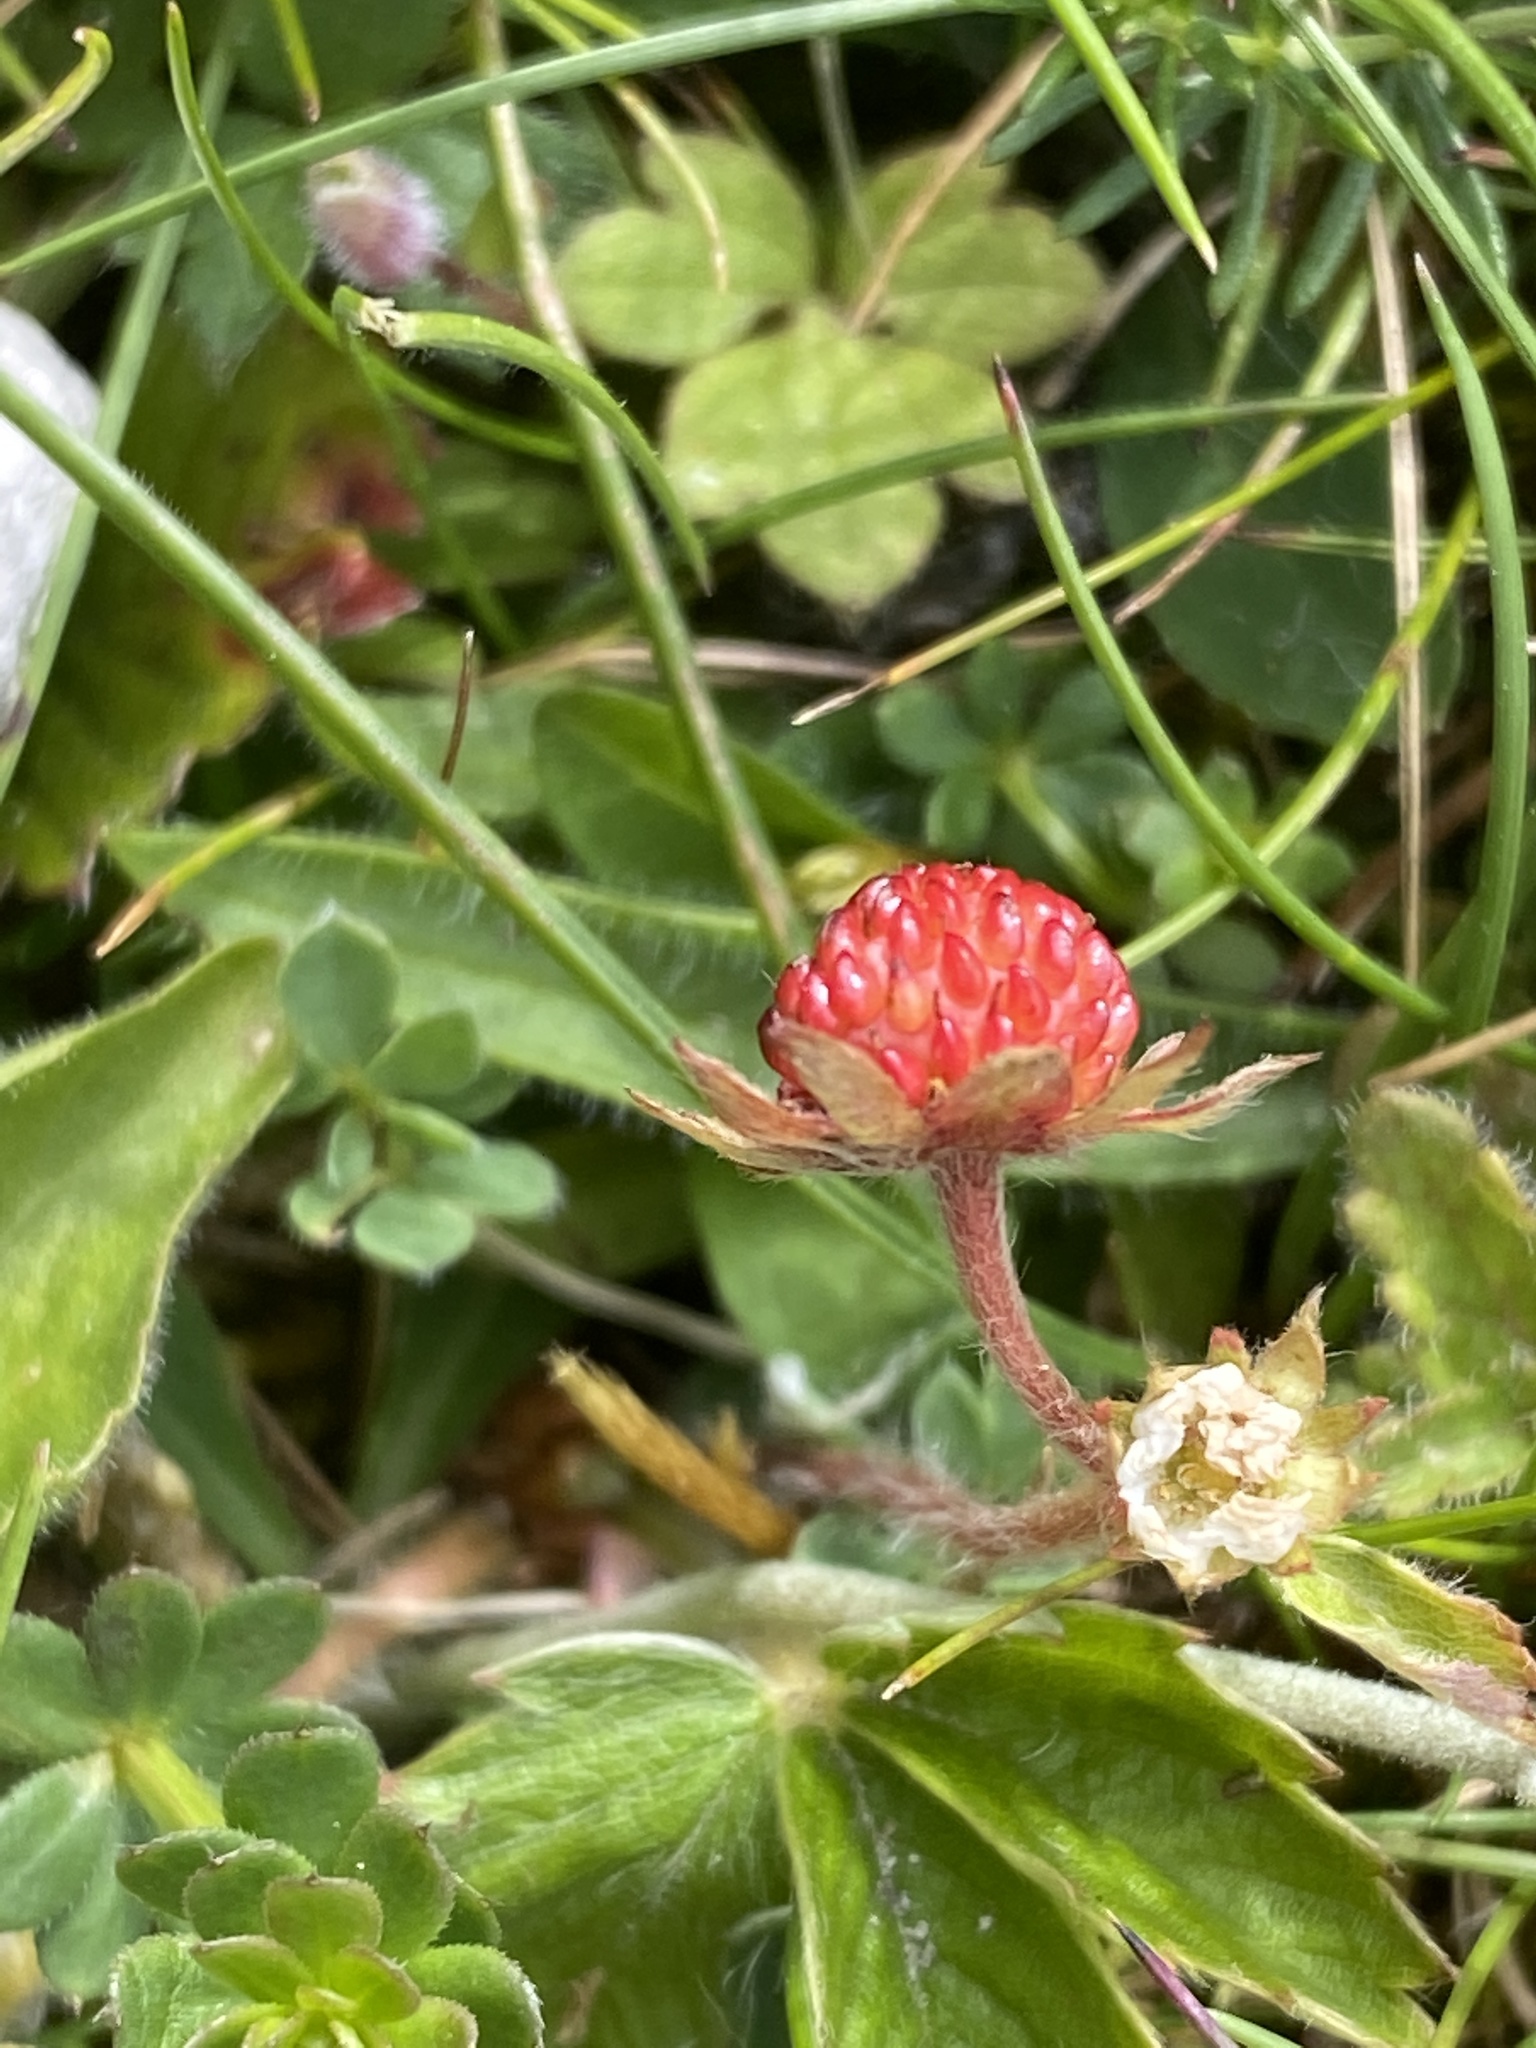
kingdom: Plantae
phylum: Tracheophyta
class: Magnoliopsida
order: Rosales
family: Rosaceae
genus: Fragaria
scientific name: Fragaria vesca
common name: Wild strawberry
